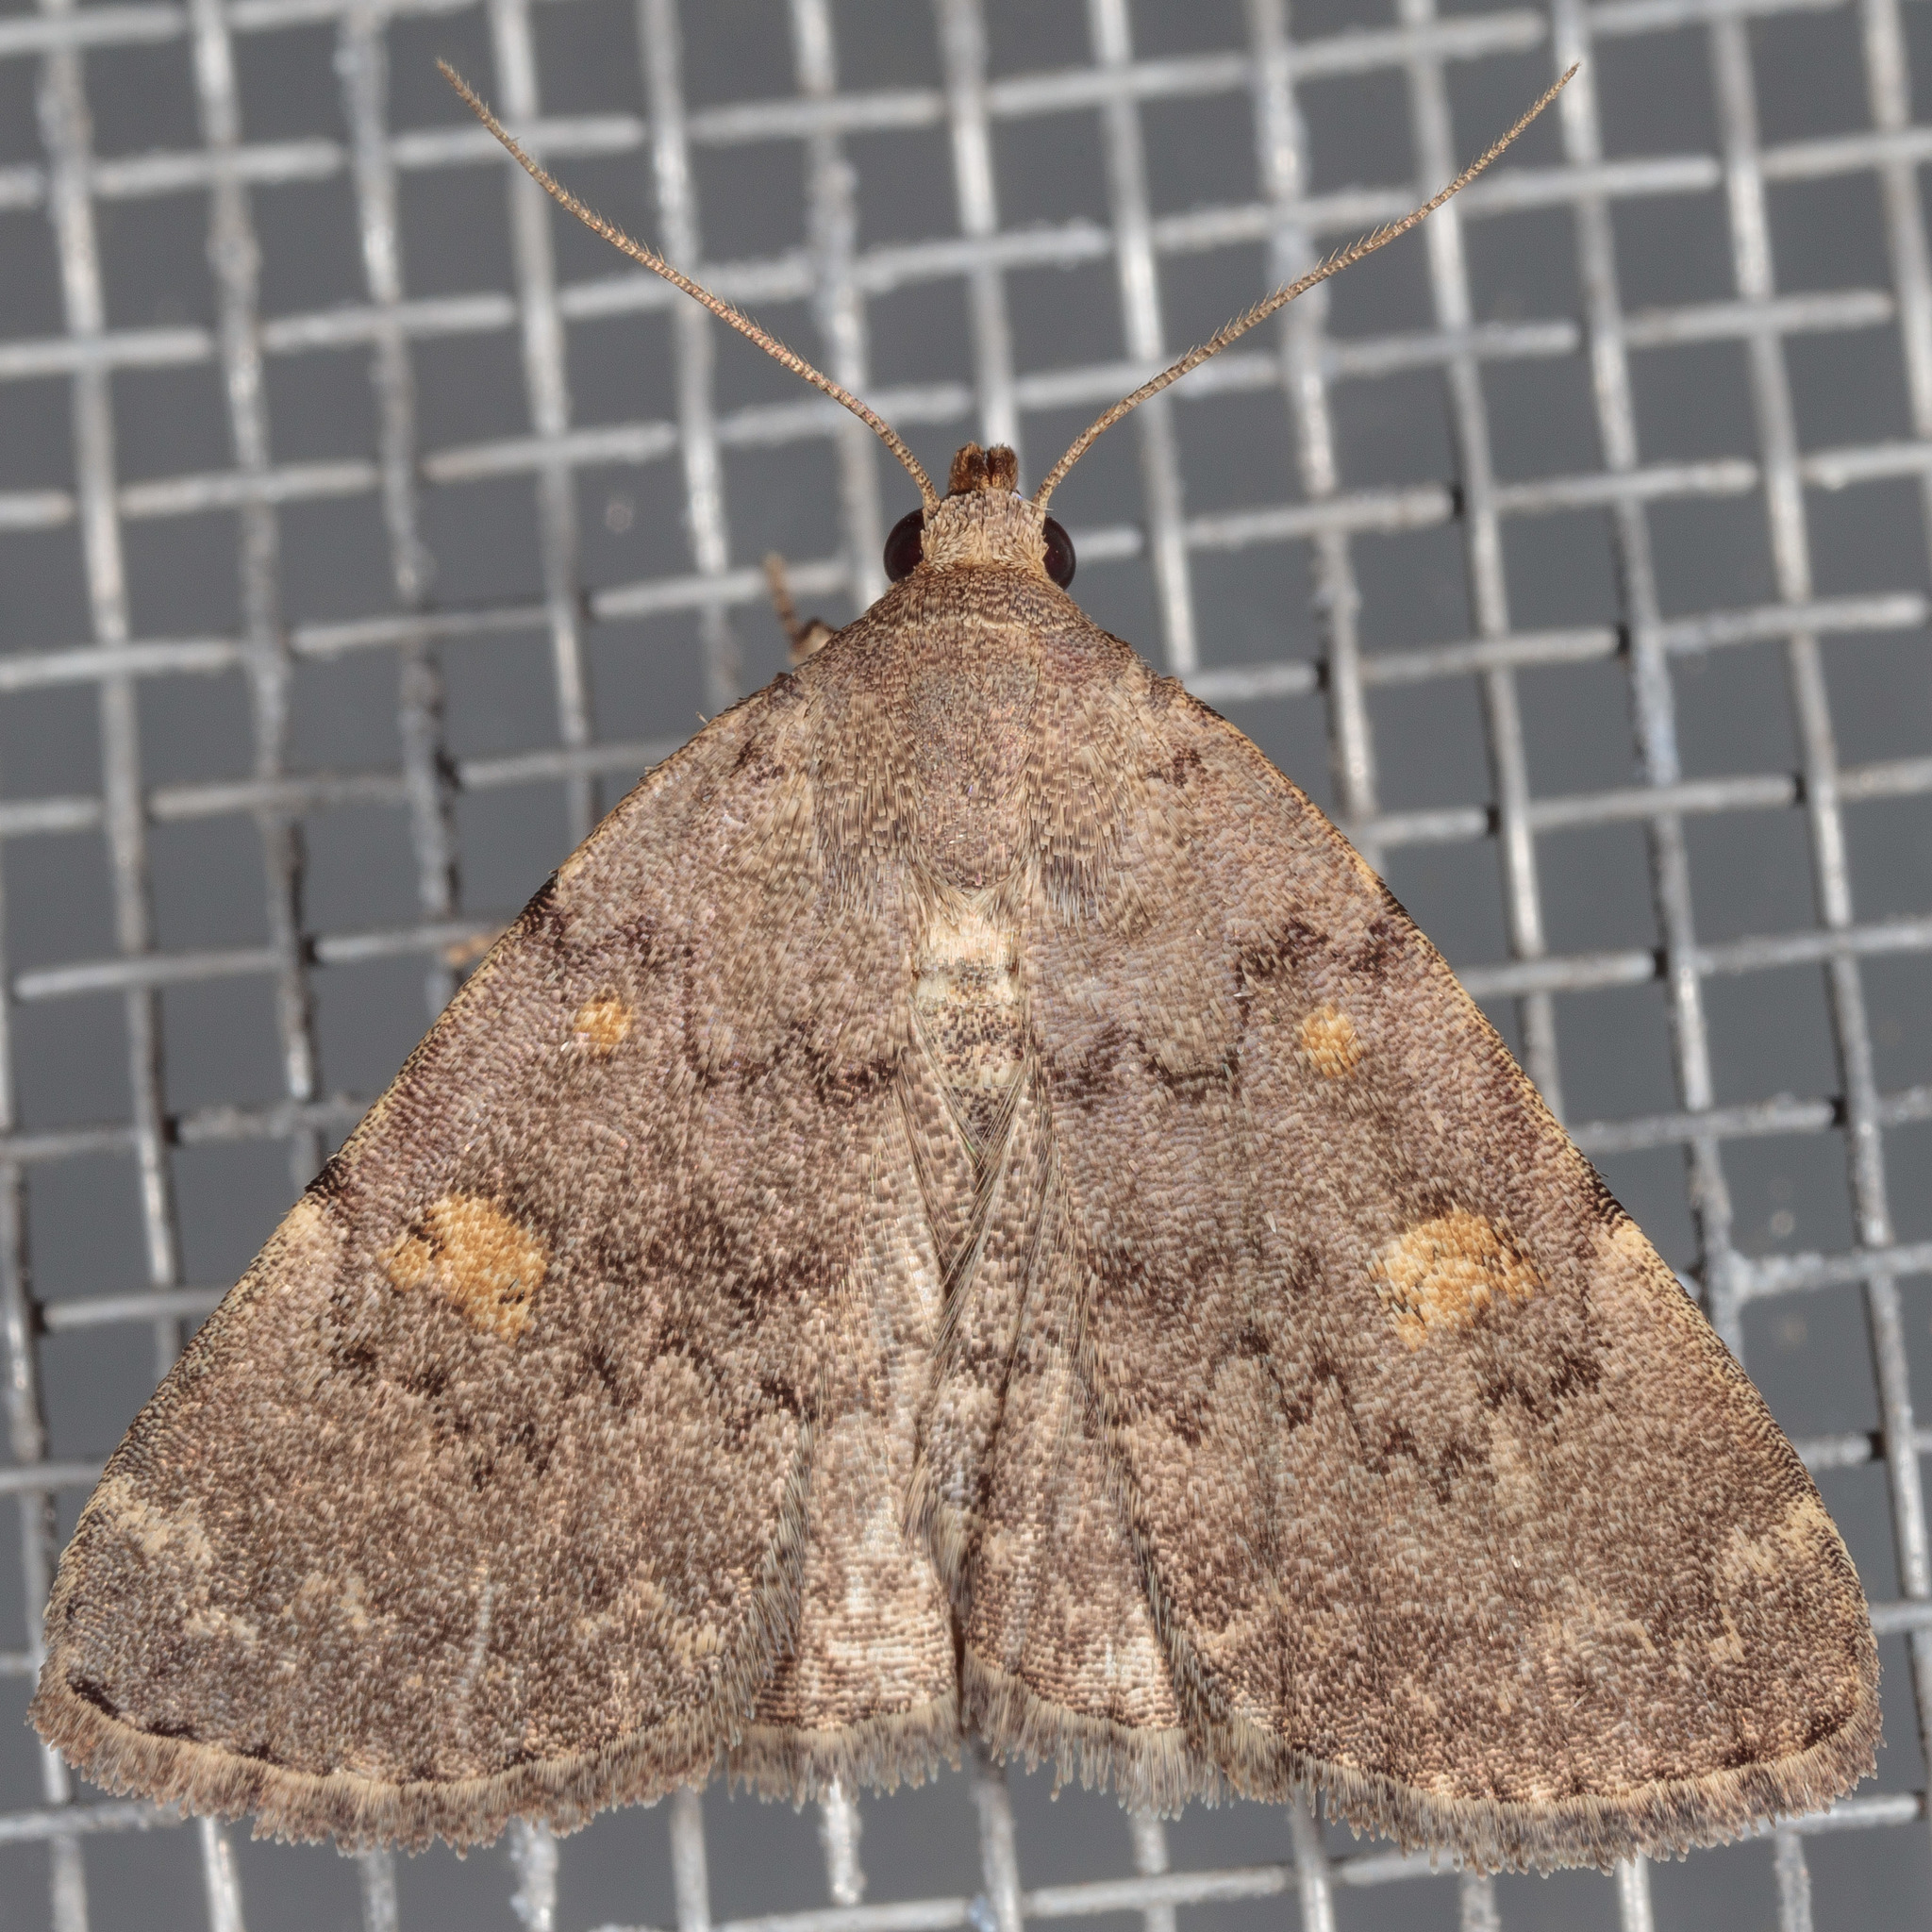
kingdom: Animalia
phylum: Arthropoda
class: Insecta
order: Lepidoptera
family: Erebidae
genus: Idia
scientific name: Idia aemula
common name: Common idia moth
